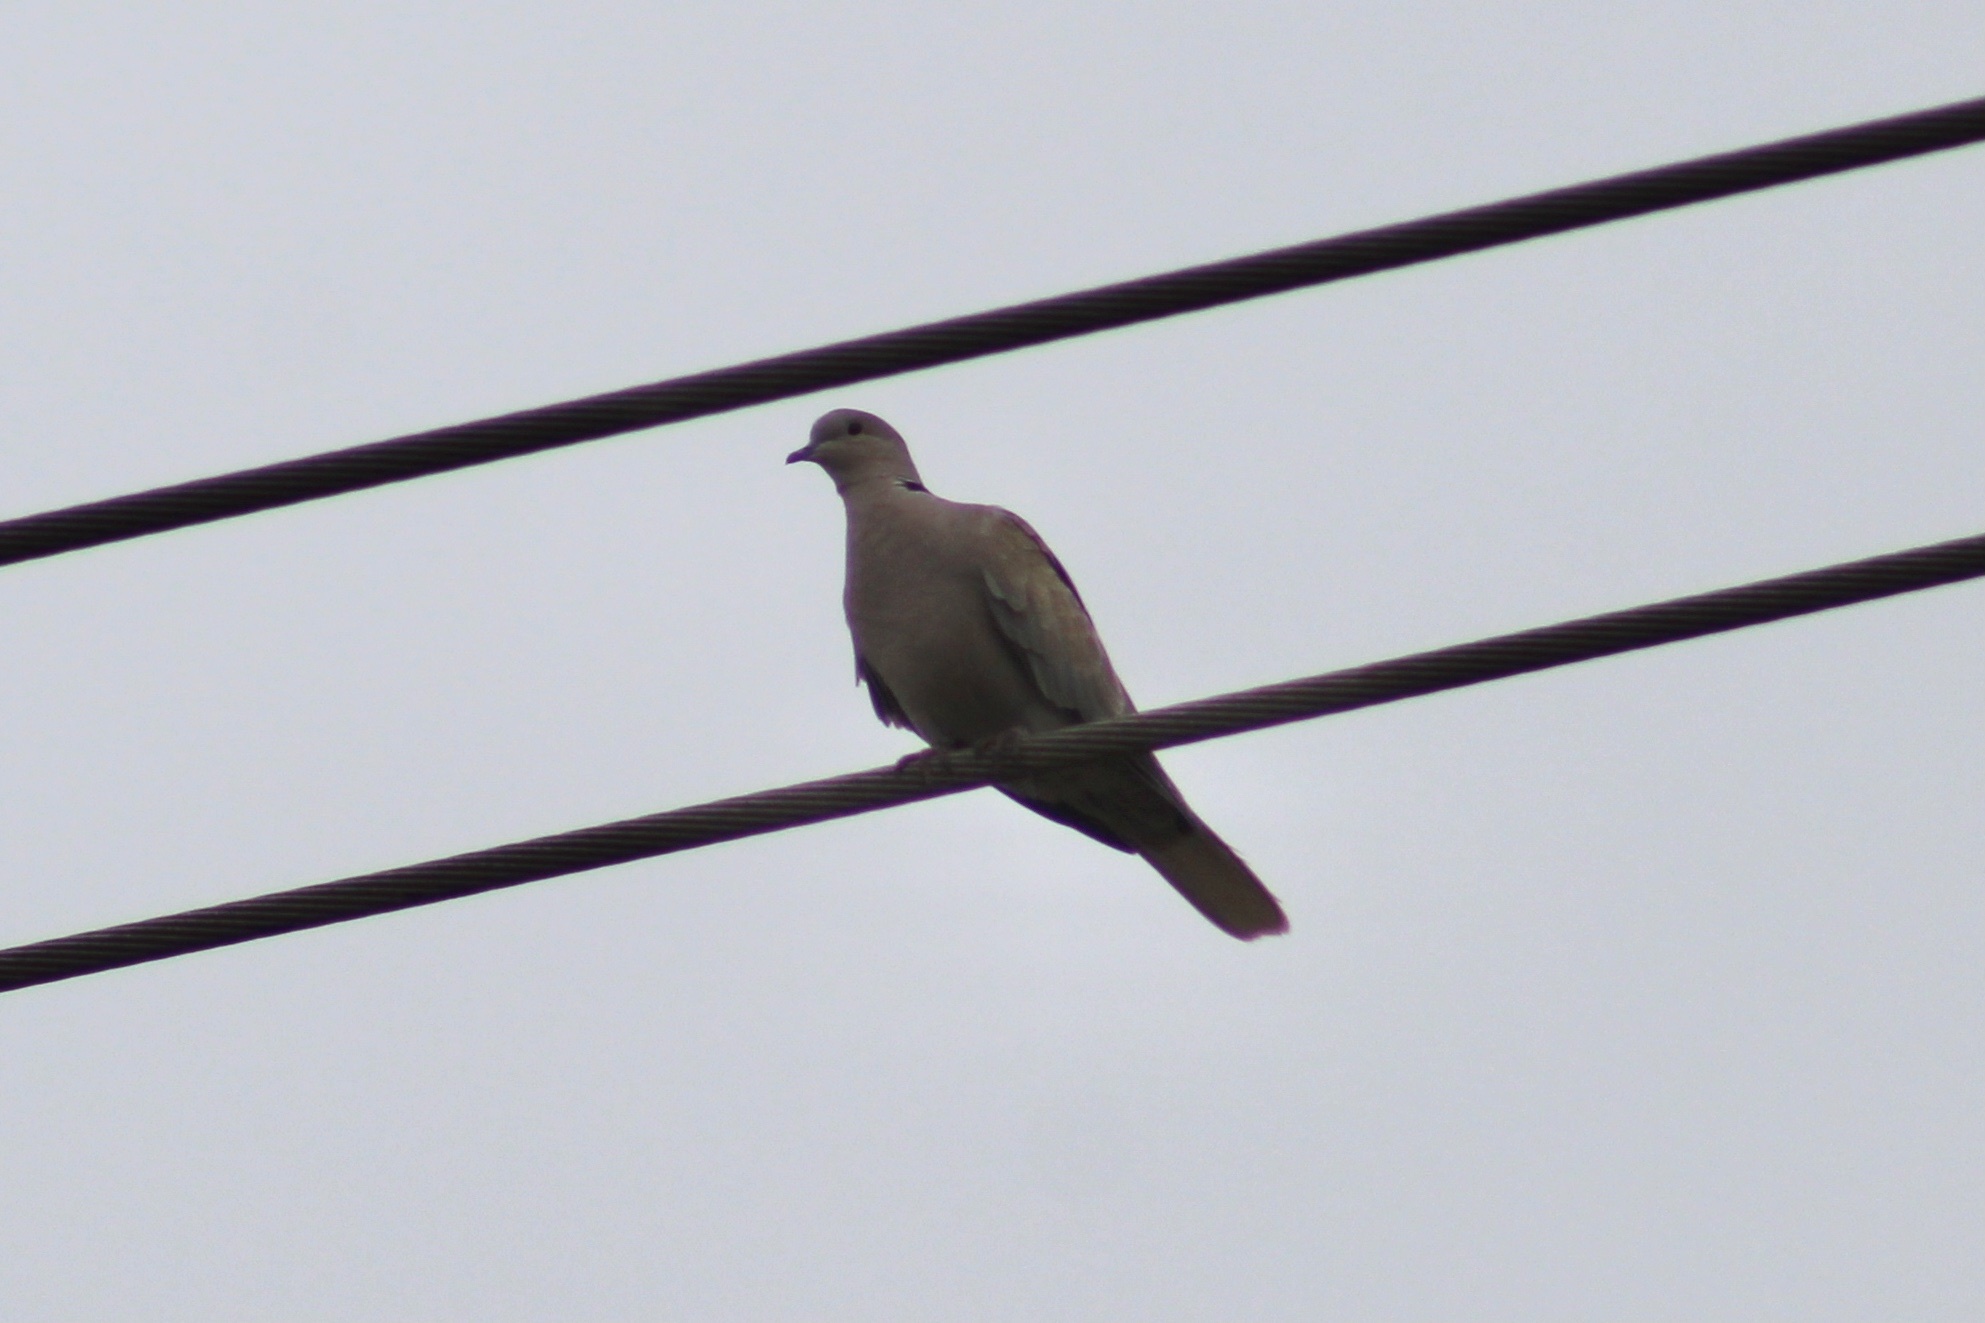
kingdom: Animalia
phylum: Chordata
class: Aves
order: Columbiformes
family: Columbidae
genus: Streptopelia
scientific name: Streptopelia decaocto
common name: Eurasian collared dove
